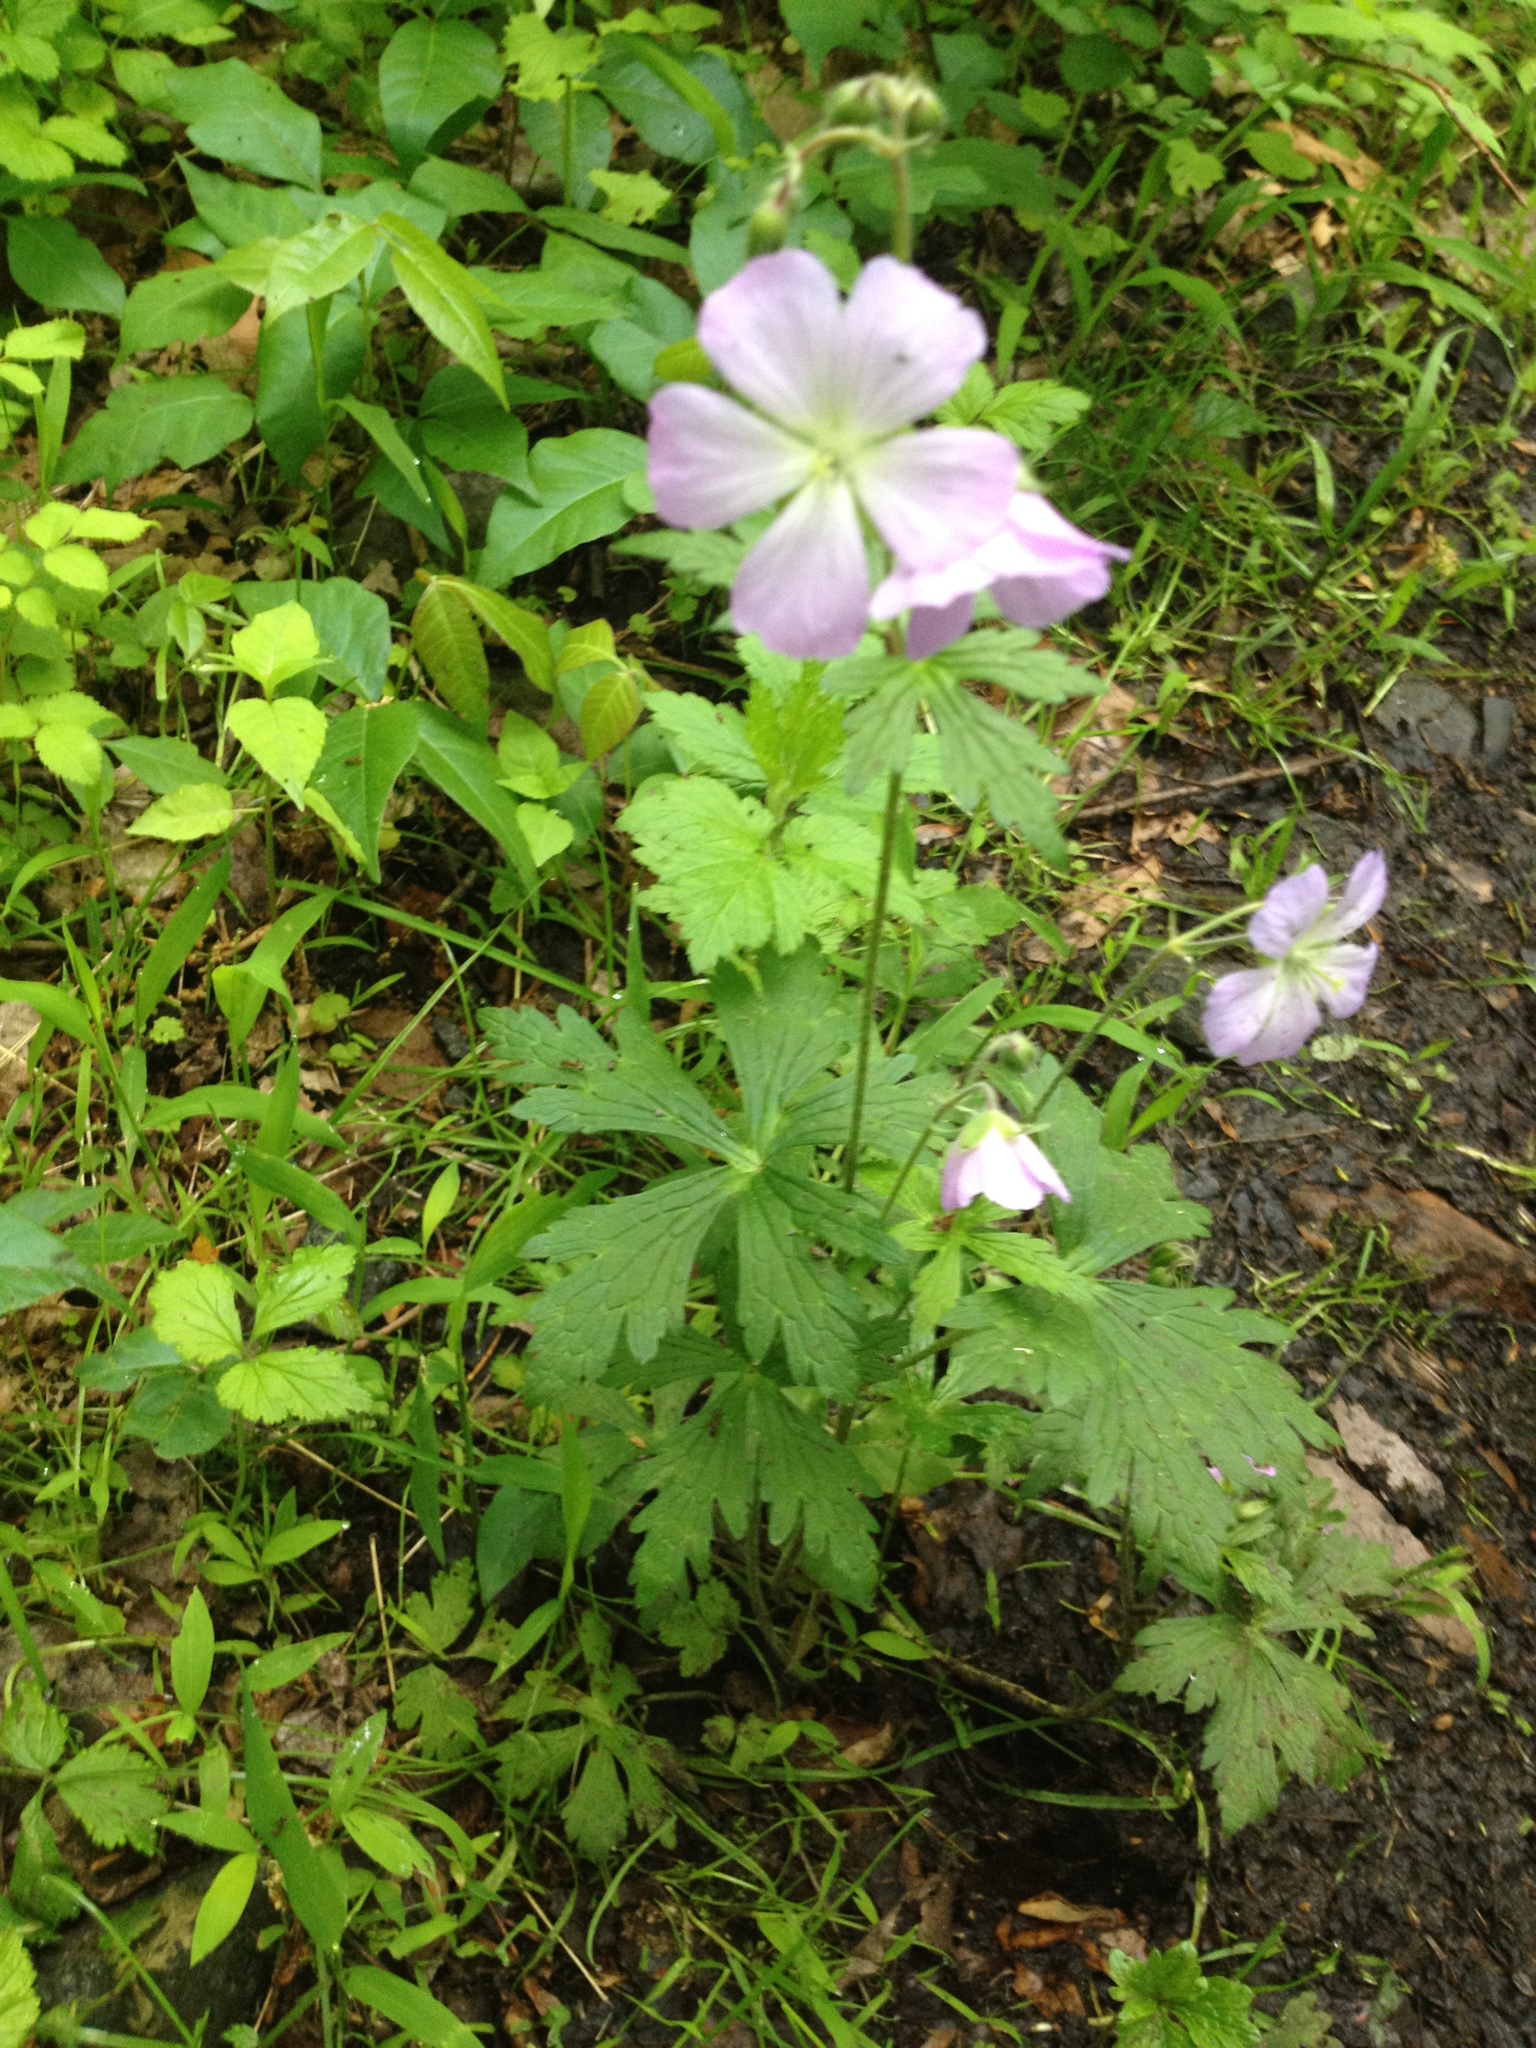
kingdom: Plantae
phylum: Tracheophyta
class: Magnoliopsida
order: Geraniales
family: Geraniaceae
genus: Geranium
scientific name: Geranium maculatum
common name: Spotted geranium
